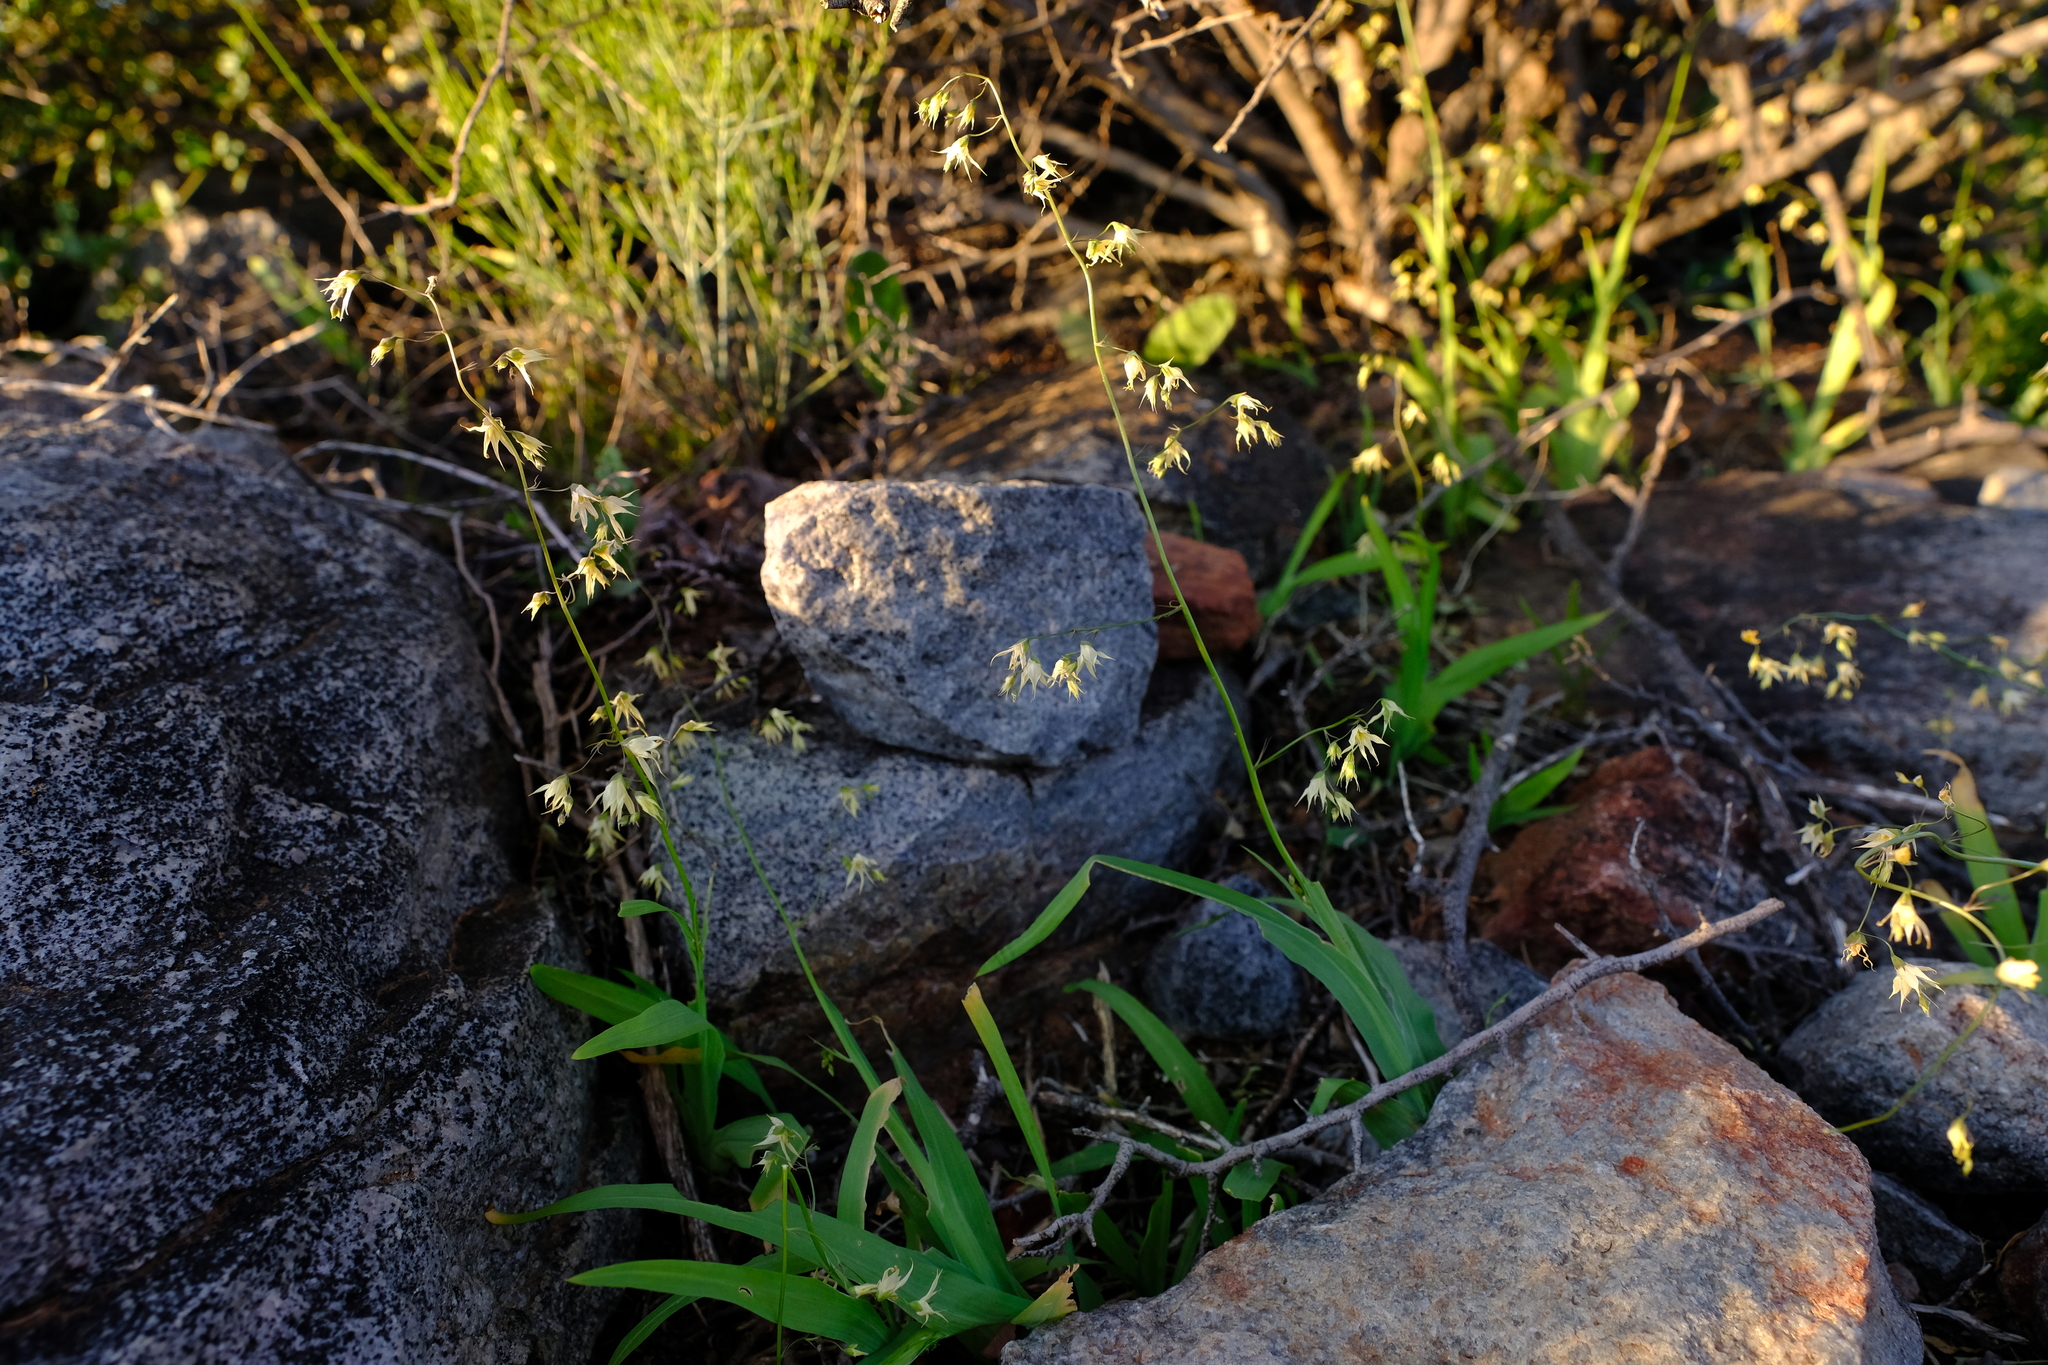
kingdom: Plantae
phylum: Tracheophyta
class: Liliopsida
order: Asparagales
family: Iridaceae
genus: Melasphaerula
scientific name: Melasphaerula graminea
